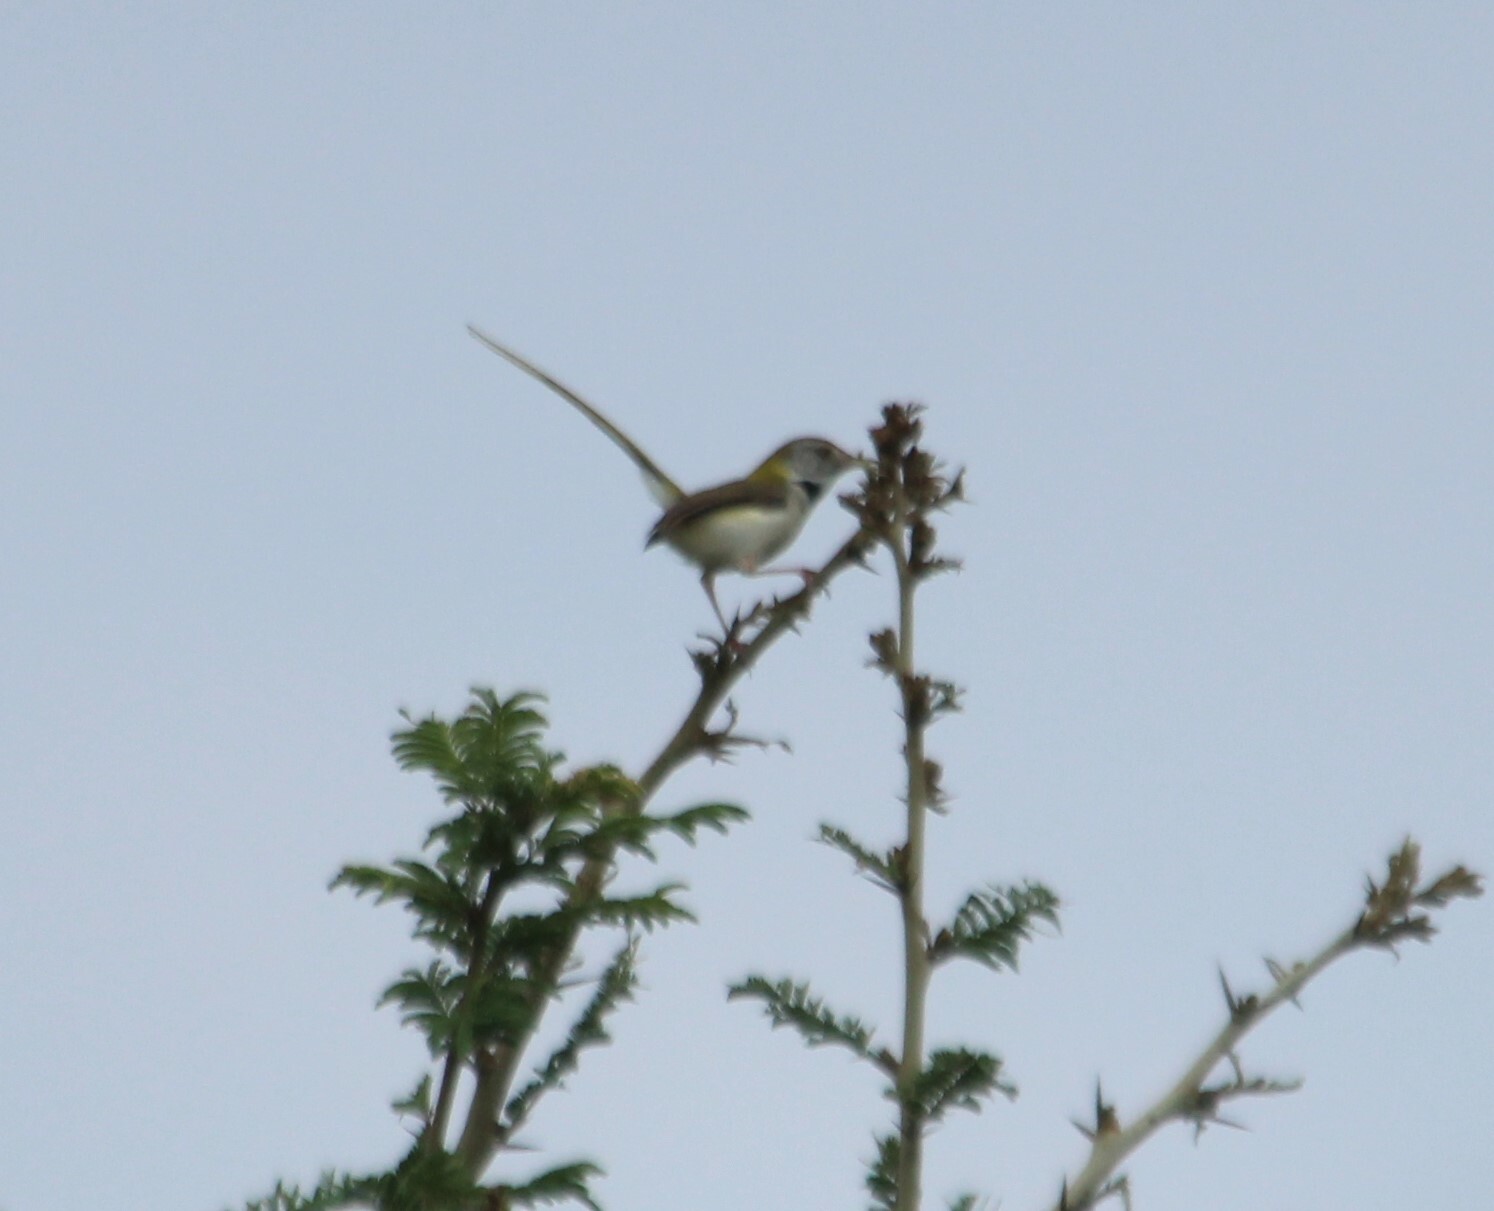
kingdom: Animalia
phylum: Chordata
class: Aves
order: Passeriformes
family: Cisticolidae
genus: Orthotomus
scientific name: Orthotomus sutorius
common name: Common tailorbird
